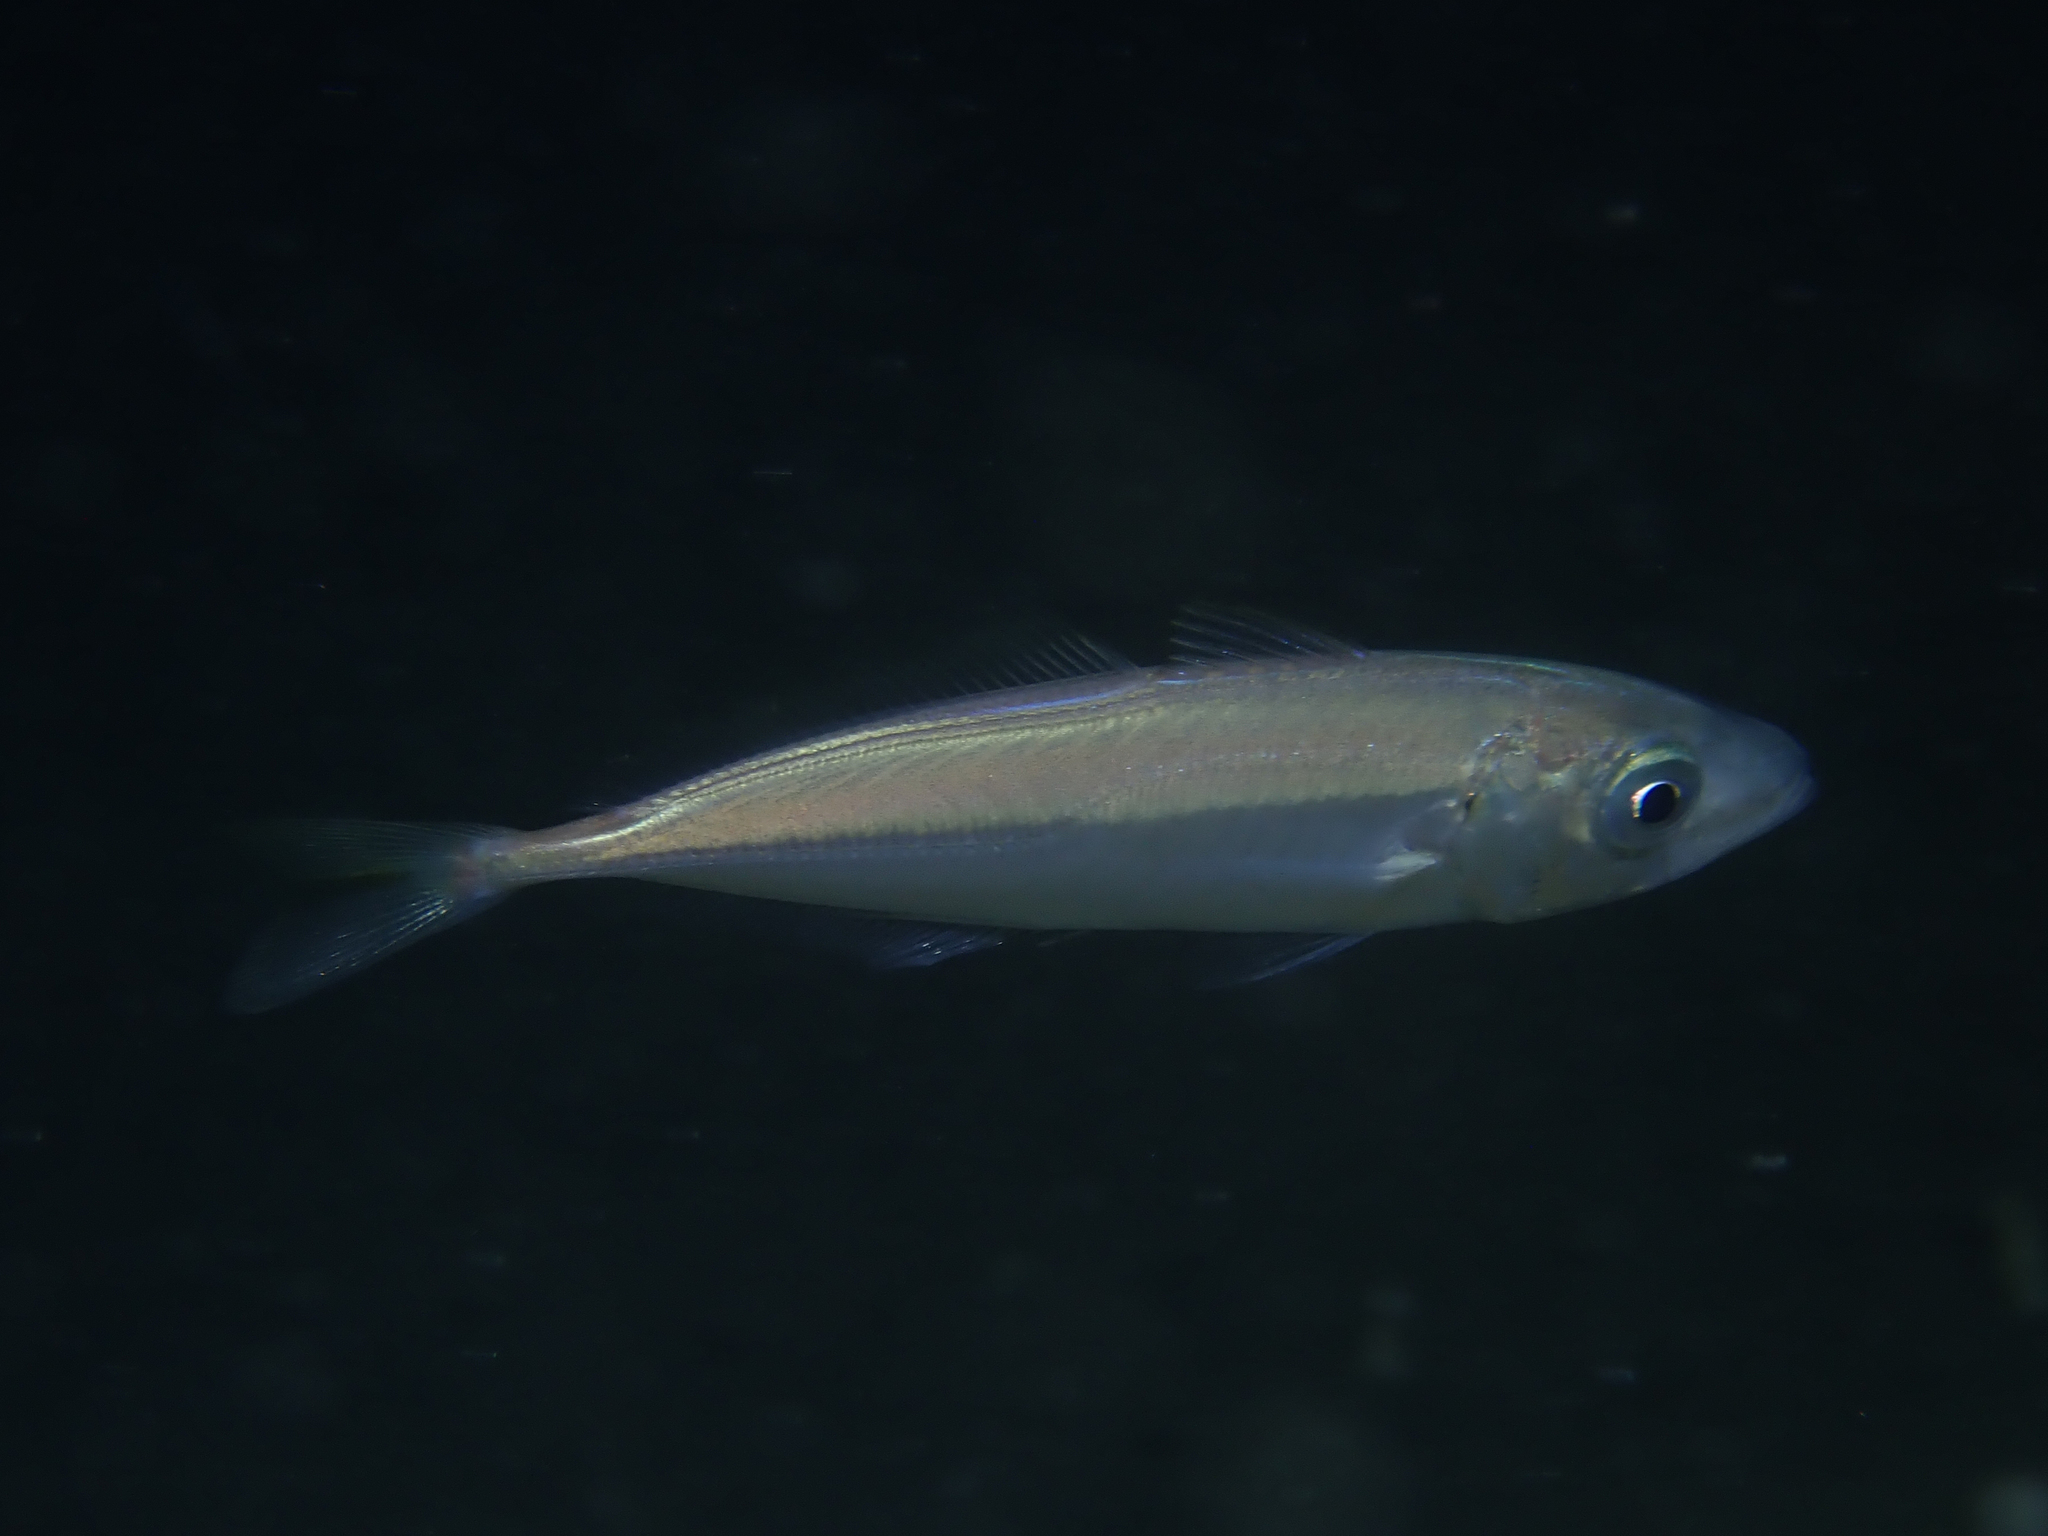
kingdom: Animalia
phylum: Chordata
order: Perciformes
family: Carangidae
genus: Trachurus
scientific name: Trachurus trachurus
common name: Horse mackerel
